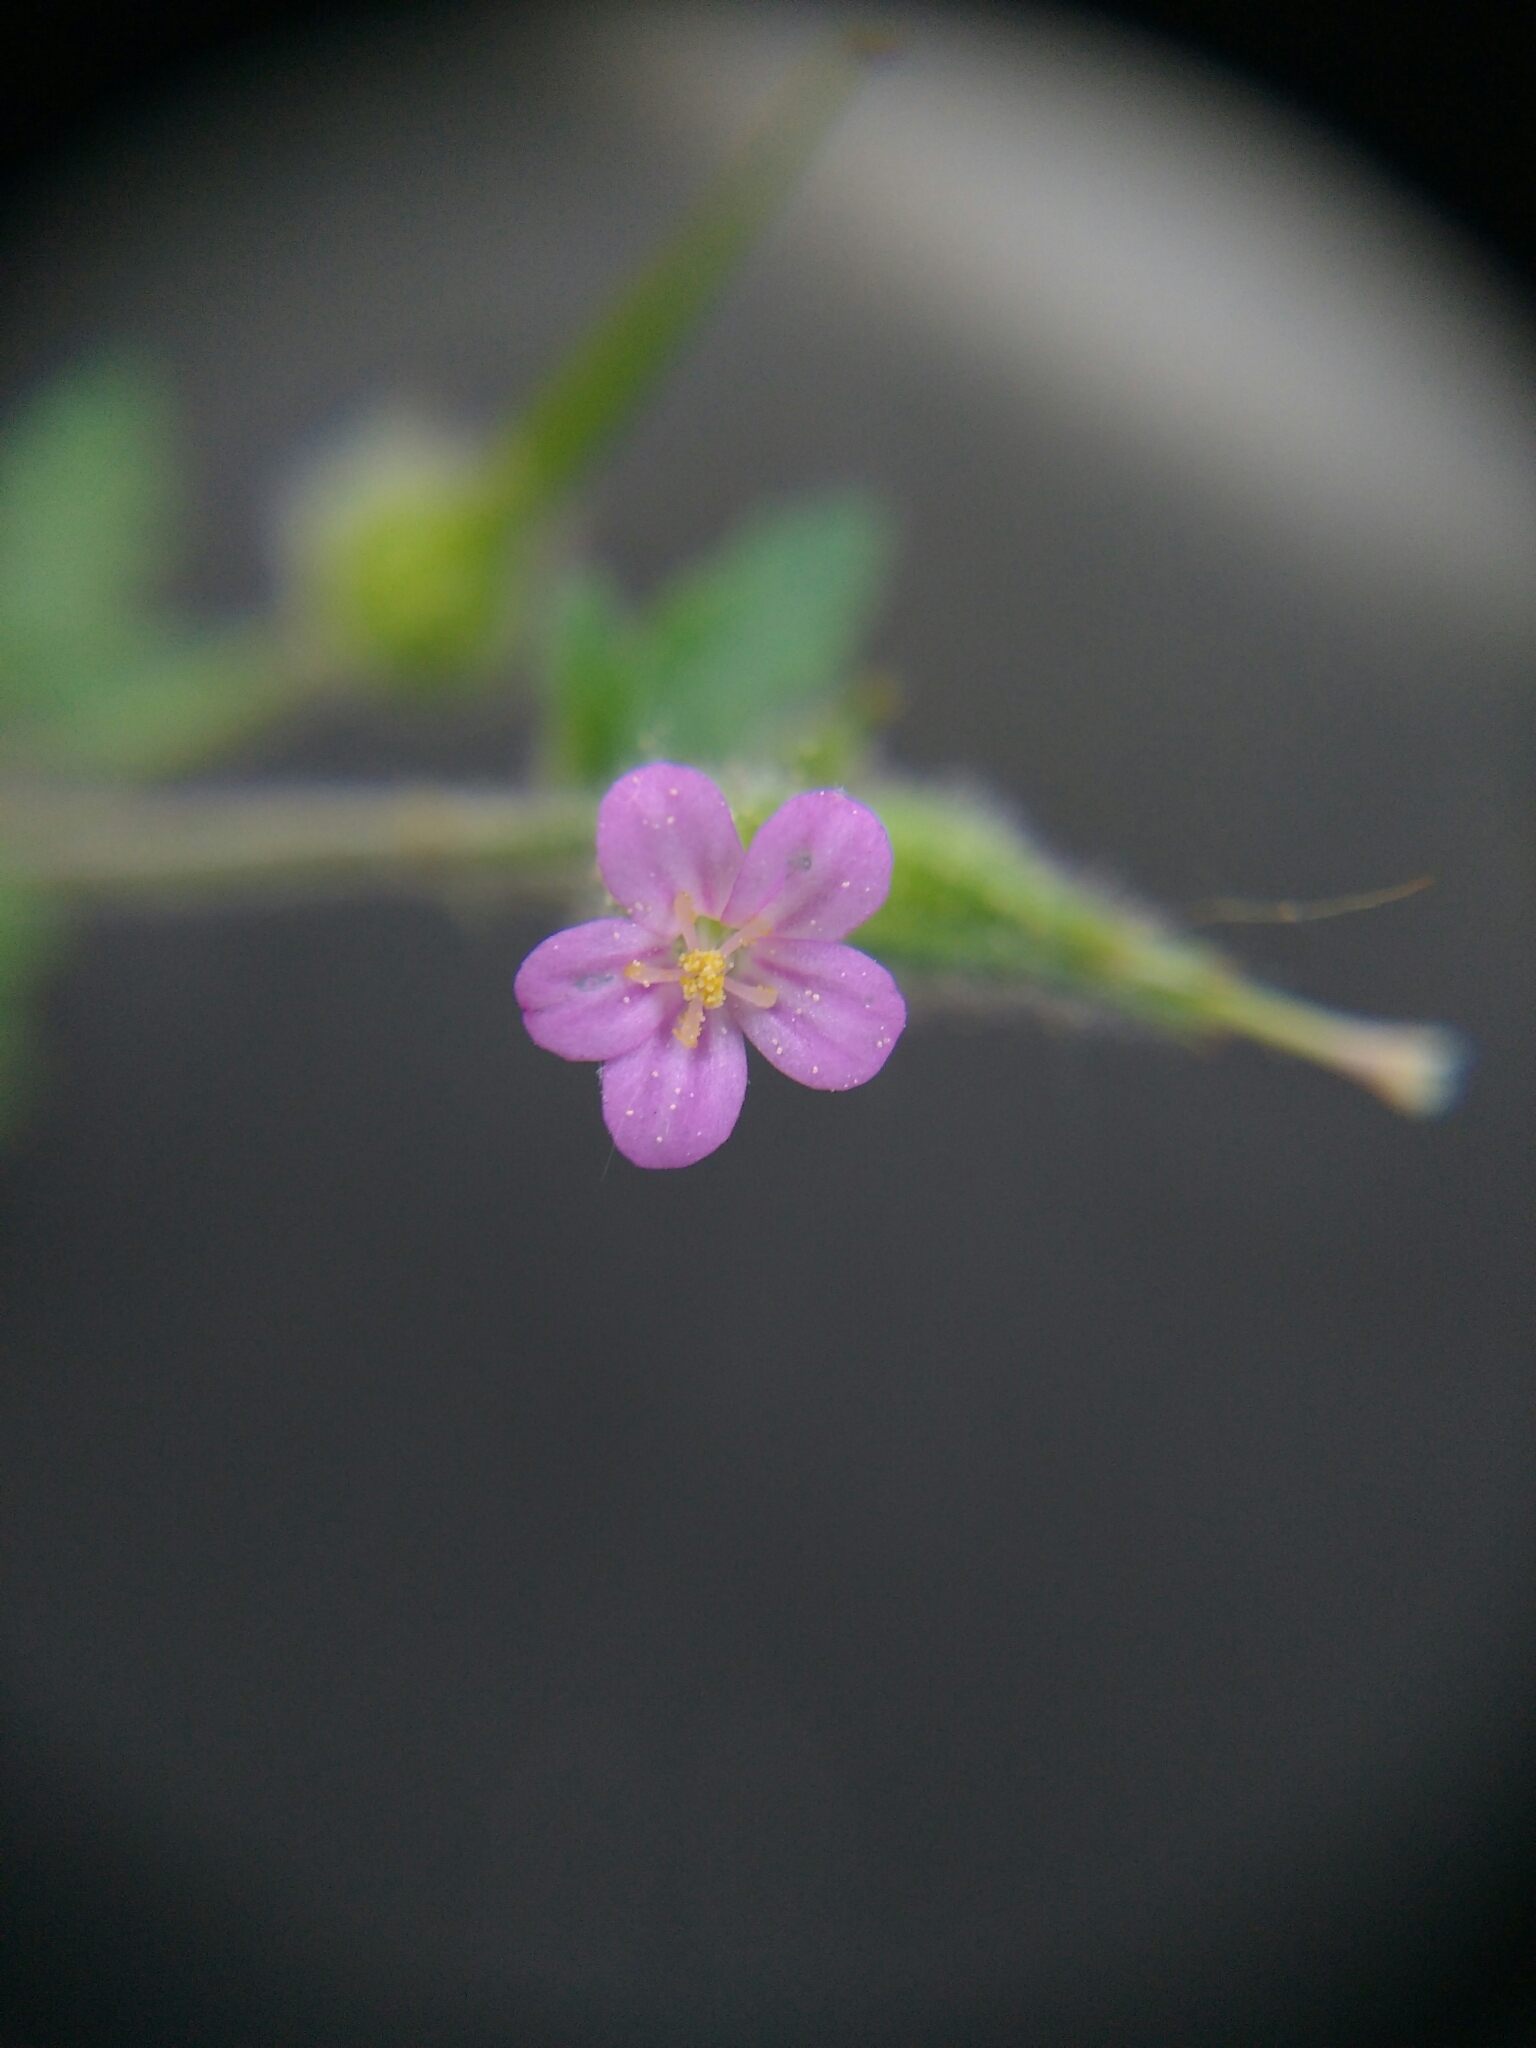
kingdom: Plantae
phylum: Tracheophyta
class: Magnoliopsida
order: Geraniales
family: Geraniaceae
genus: Geranium
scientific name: Geranium purpureum
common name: Little-robin
